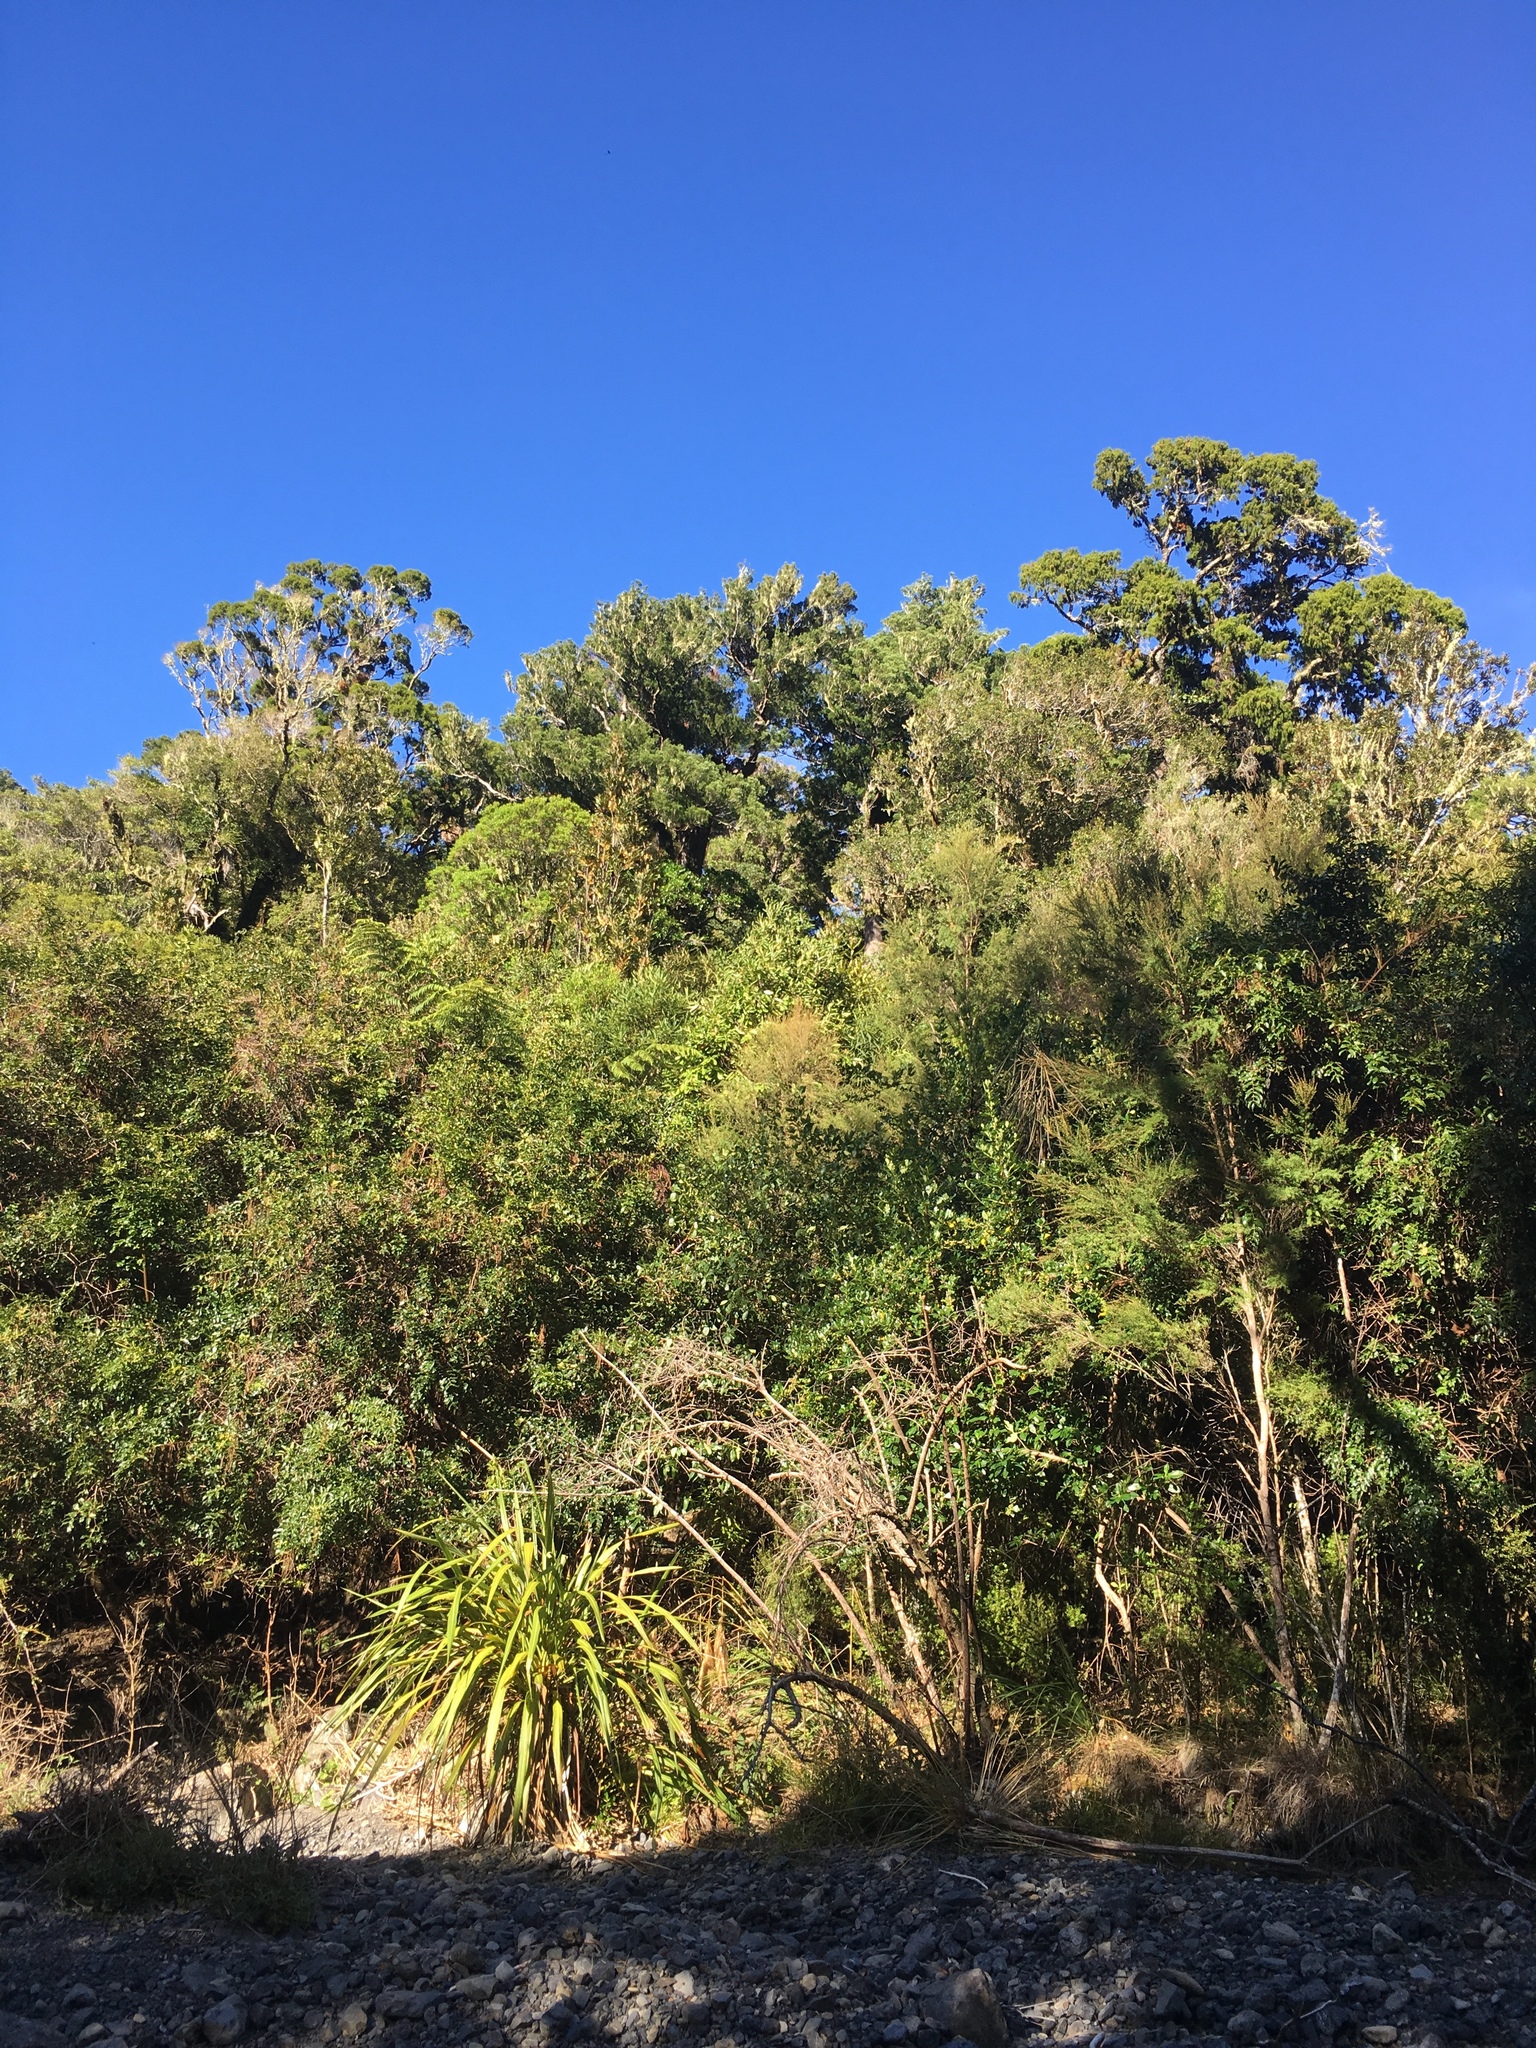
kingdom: Plantae
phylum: Tracheophyta
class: Pinopsida
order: Pinales
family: Podocarpaceae
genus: Dacrydium
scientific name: Dacrydium cupressinum
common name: Red pine
